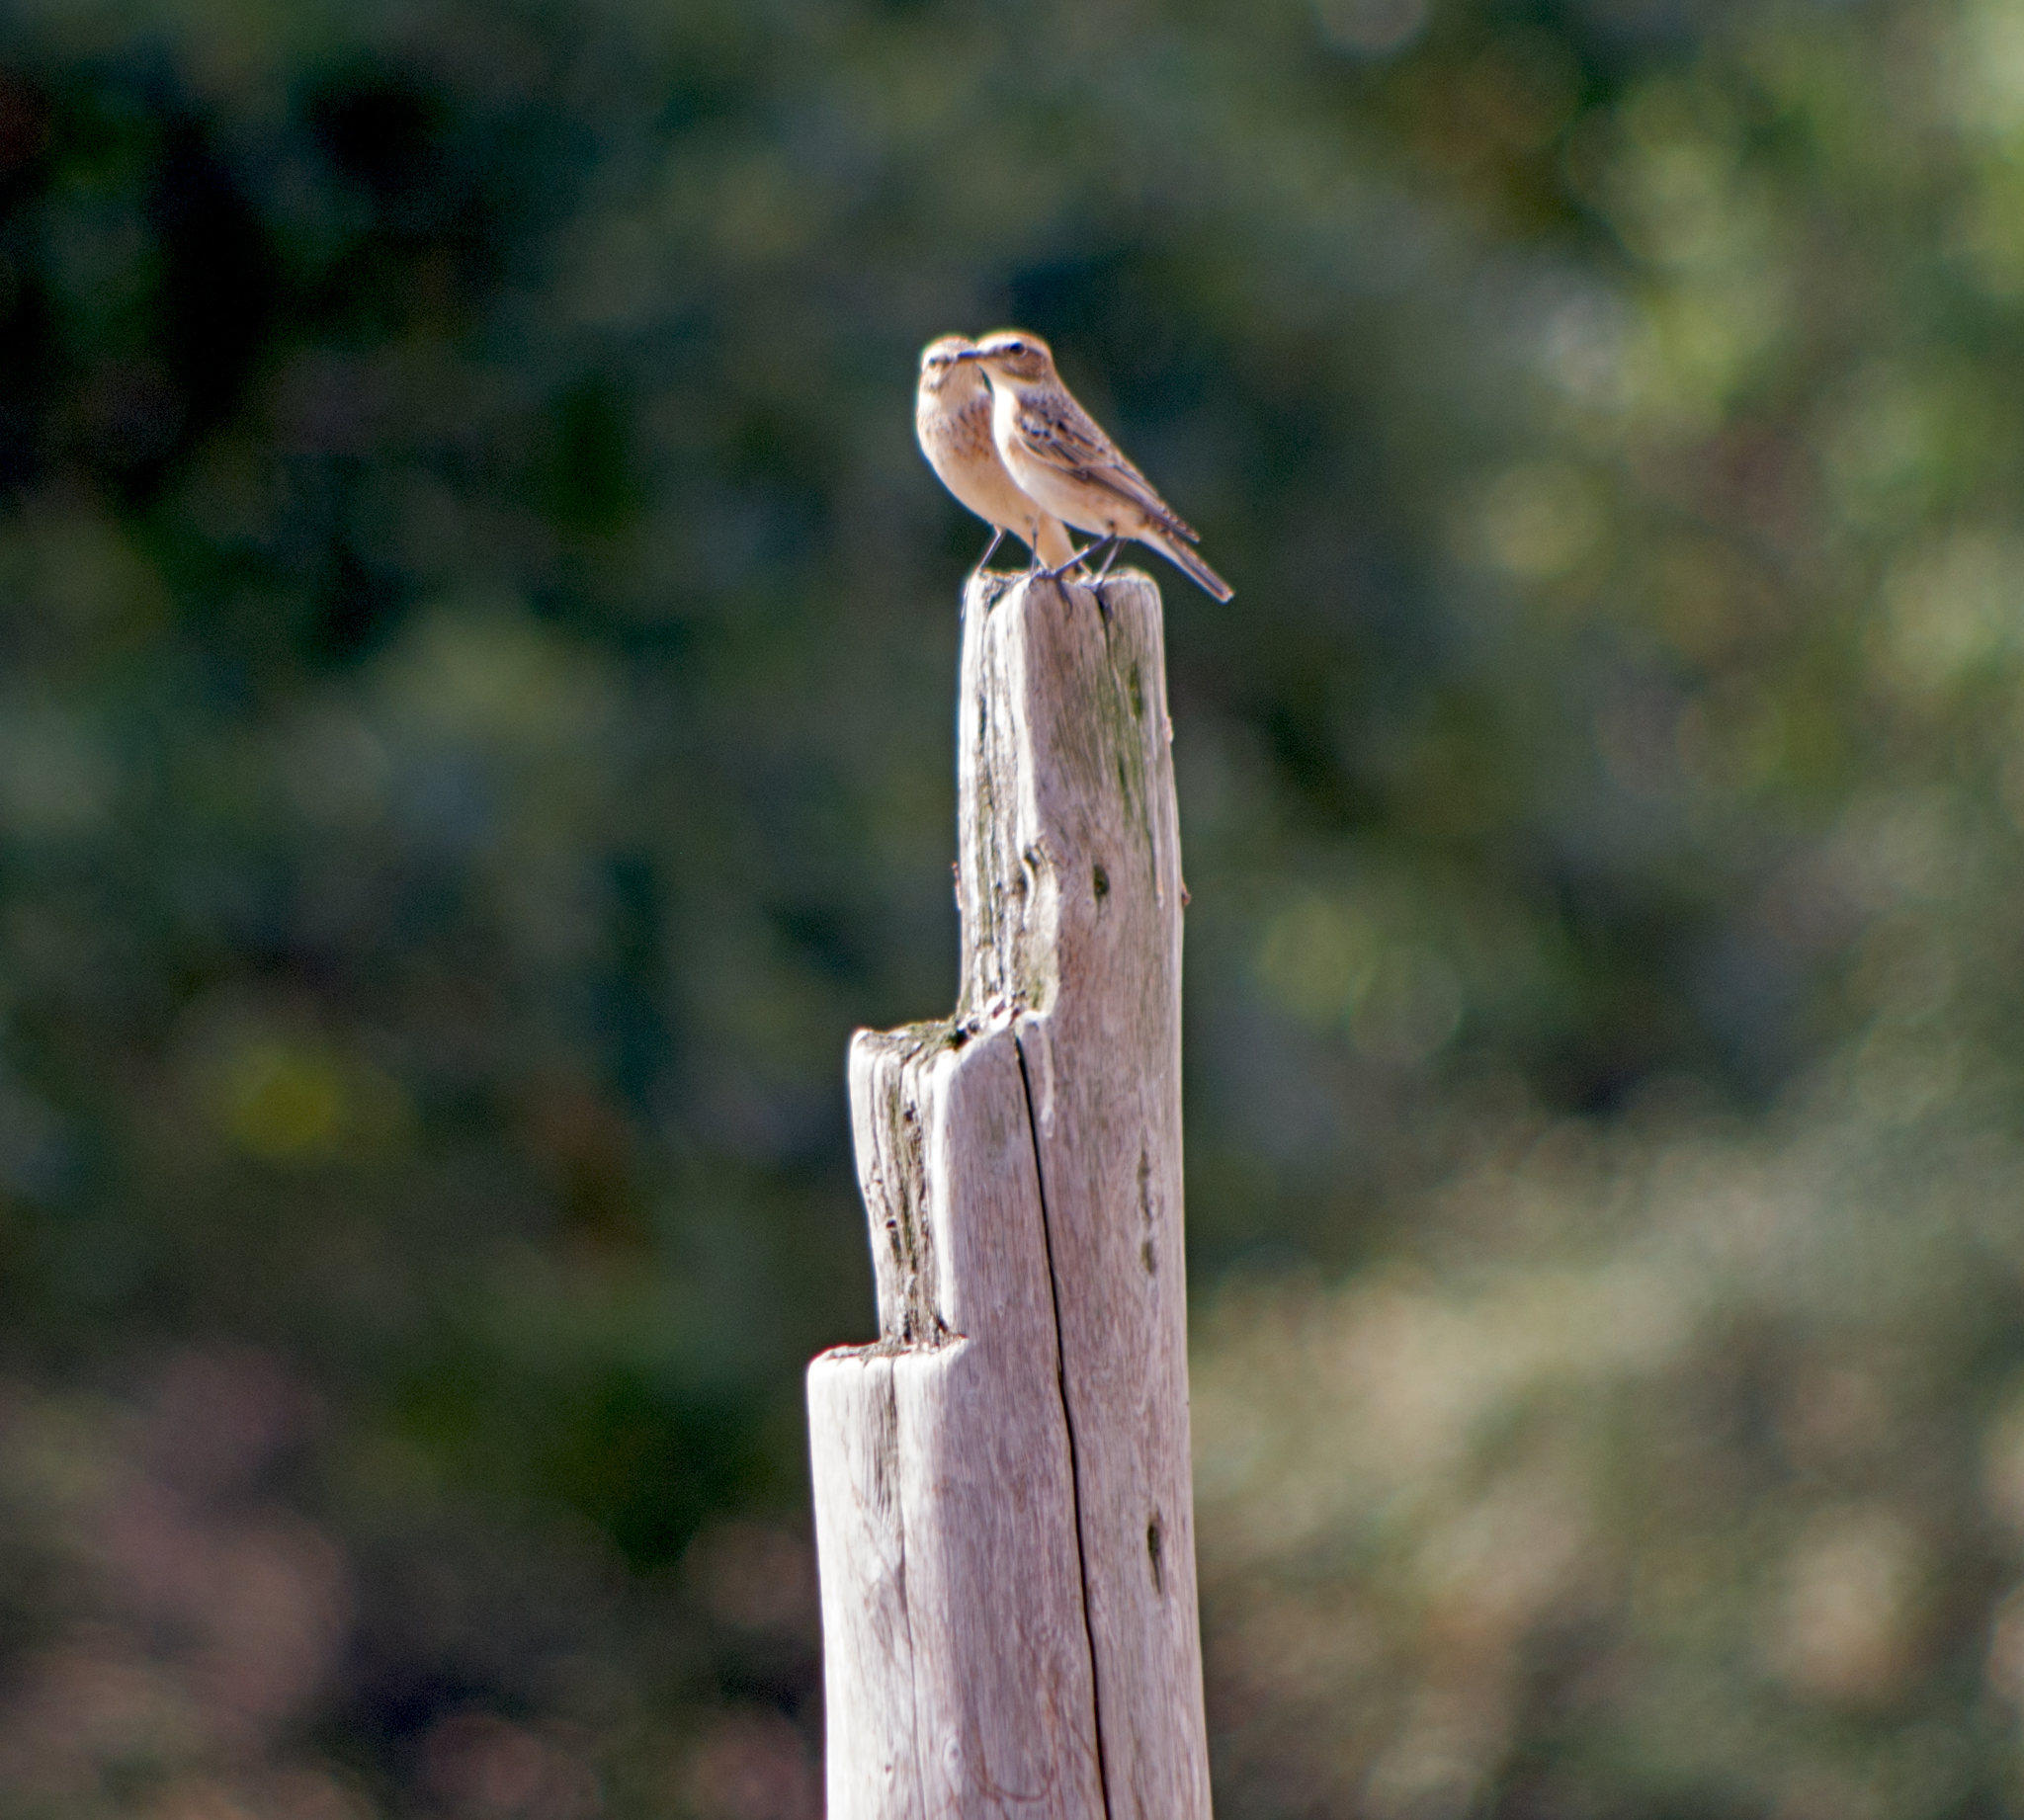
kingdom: Animalia
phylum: Chordata
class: Aves
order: Passeriformes
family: Muscicapidae
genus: Saxicola
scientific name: Saxicola rubetra
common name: Whinchat
